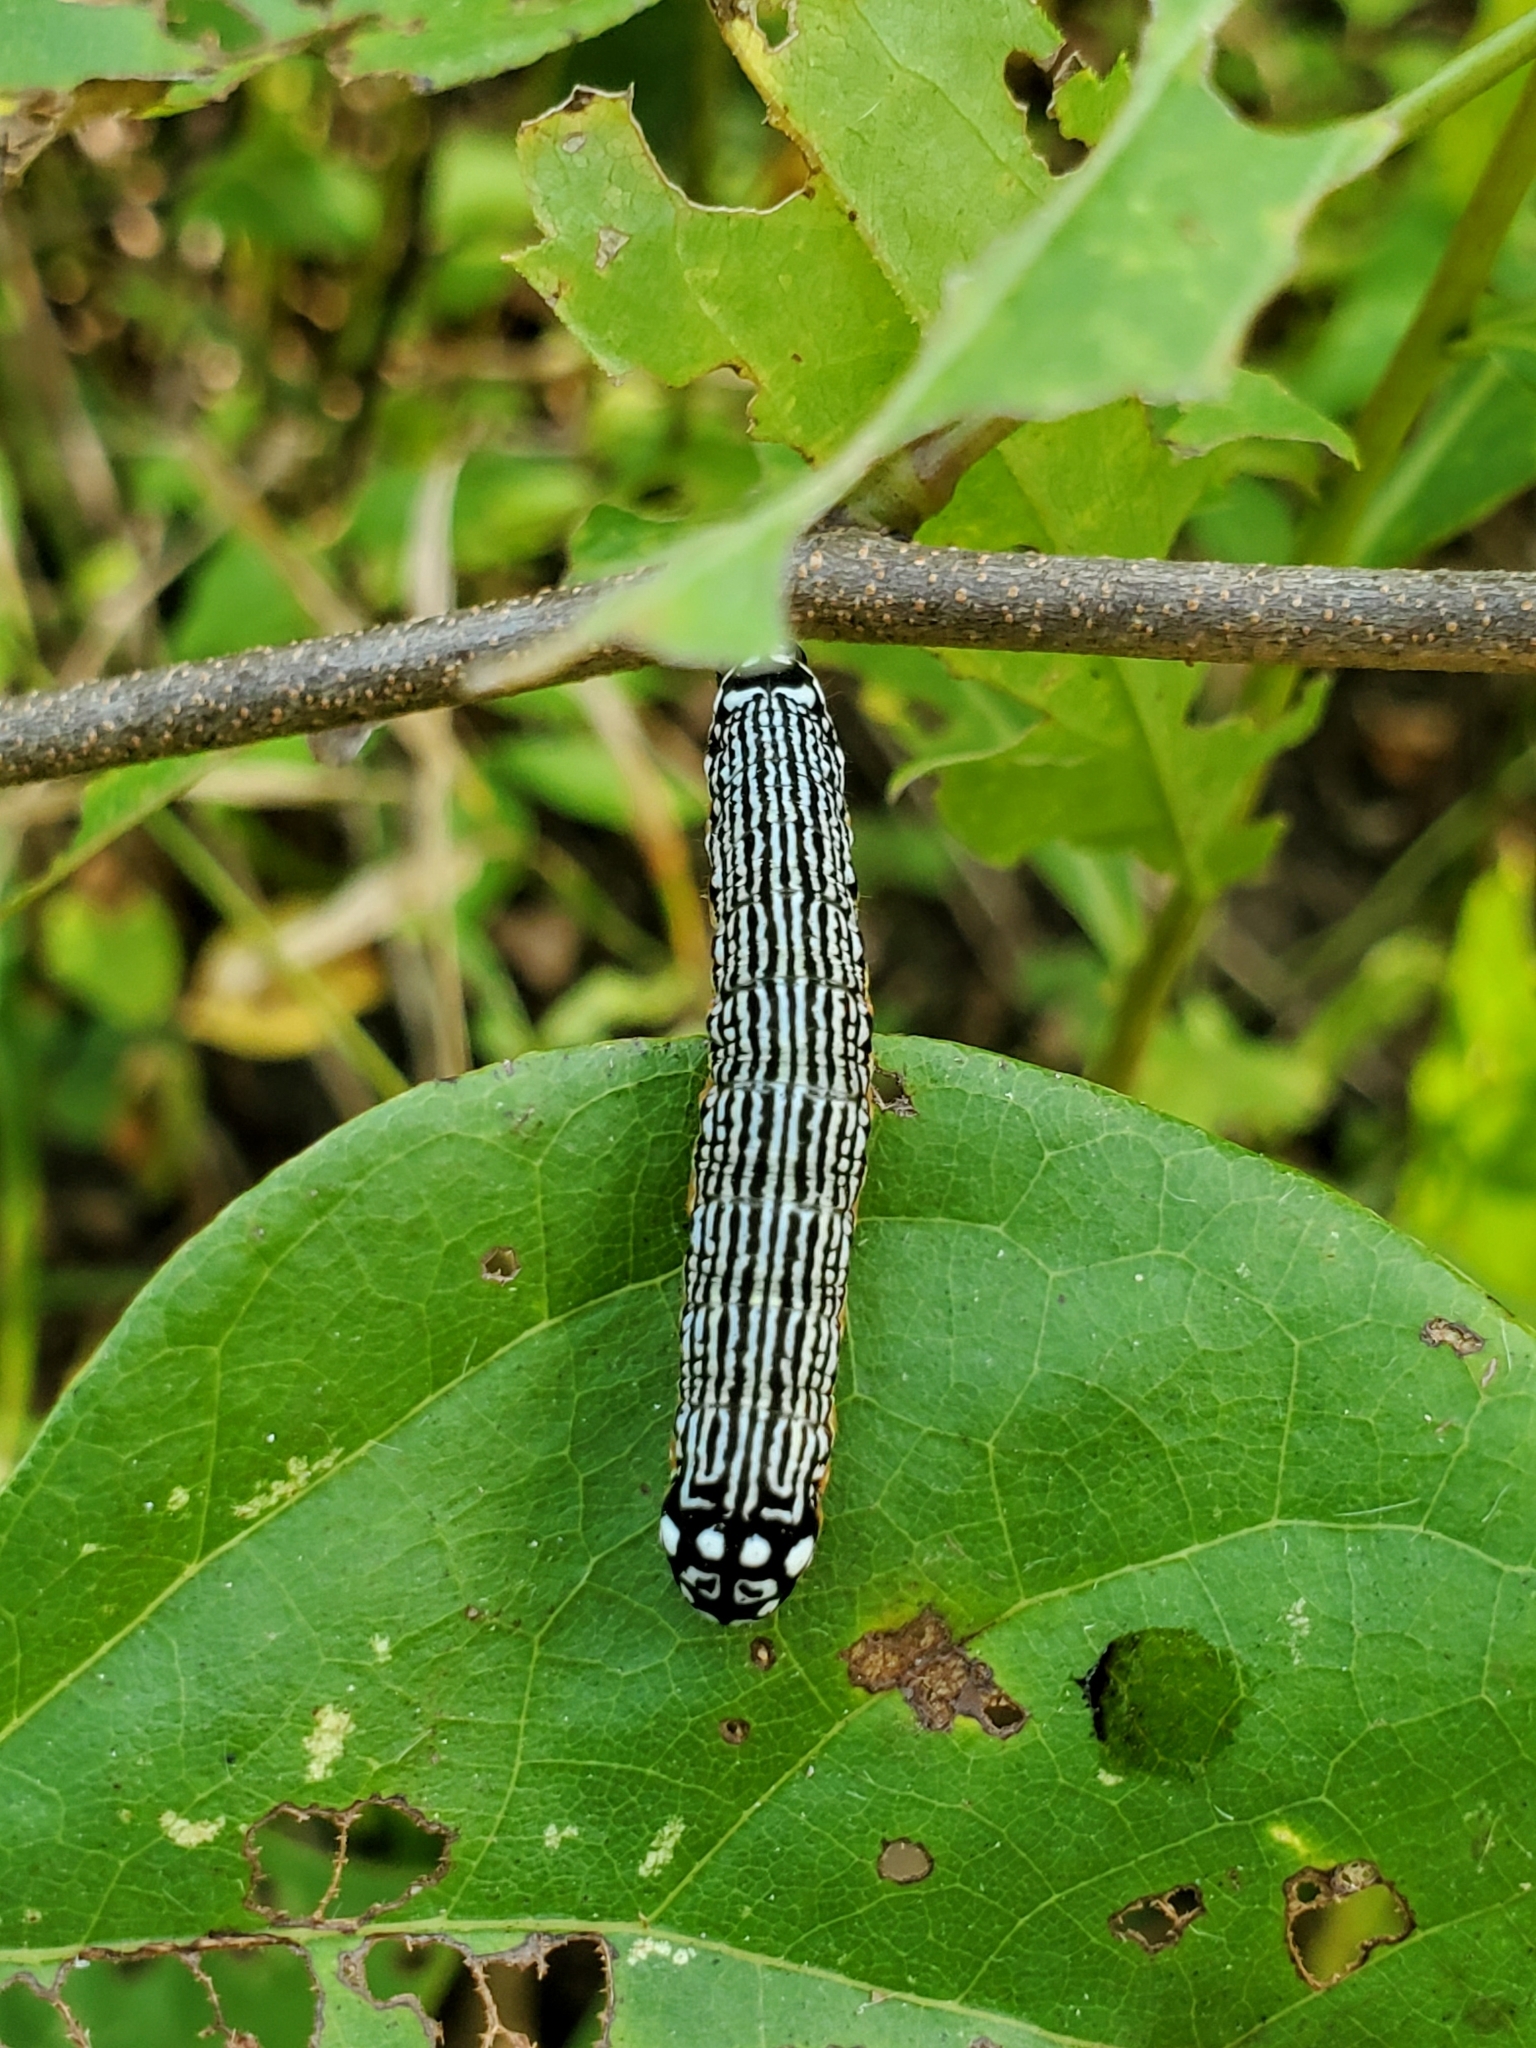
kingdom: Animalia
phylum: Arthropoda
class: Insecta
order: Lepidoptera
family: Noctuidae
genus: Phosphila
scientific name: Phosphila turbulenta
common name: Turbulent phosphila moth
